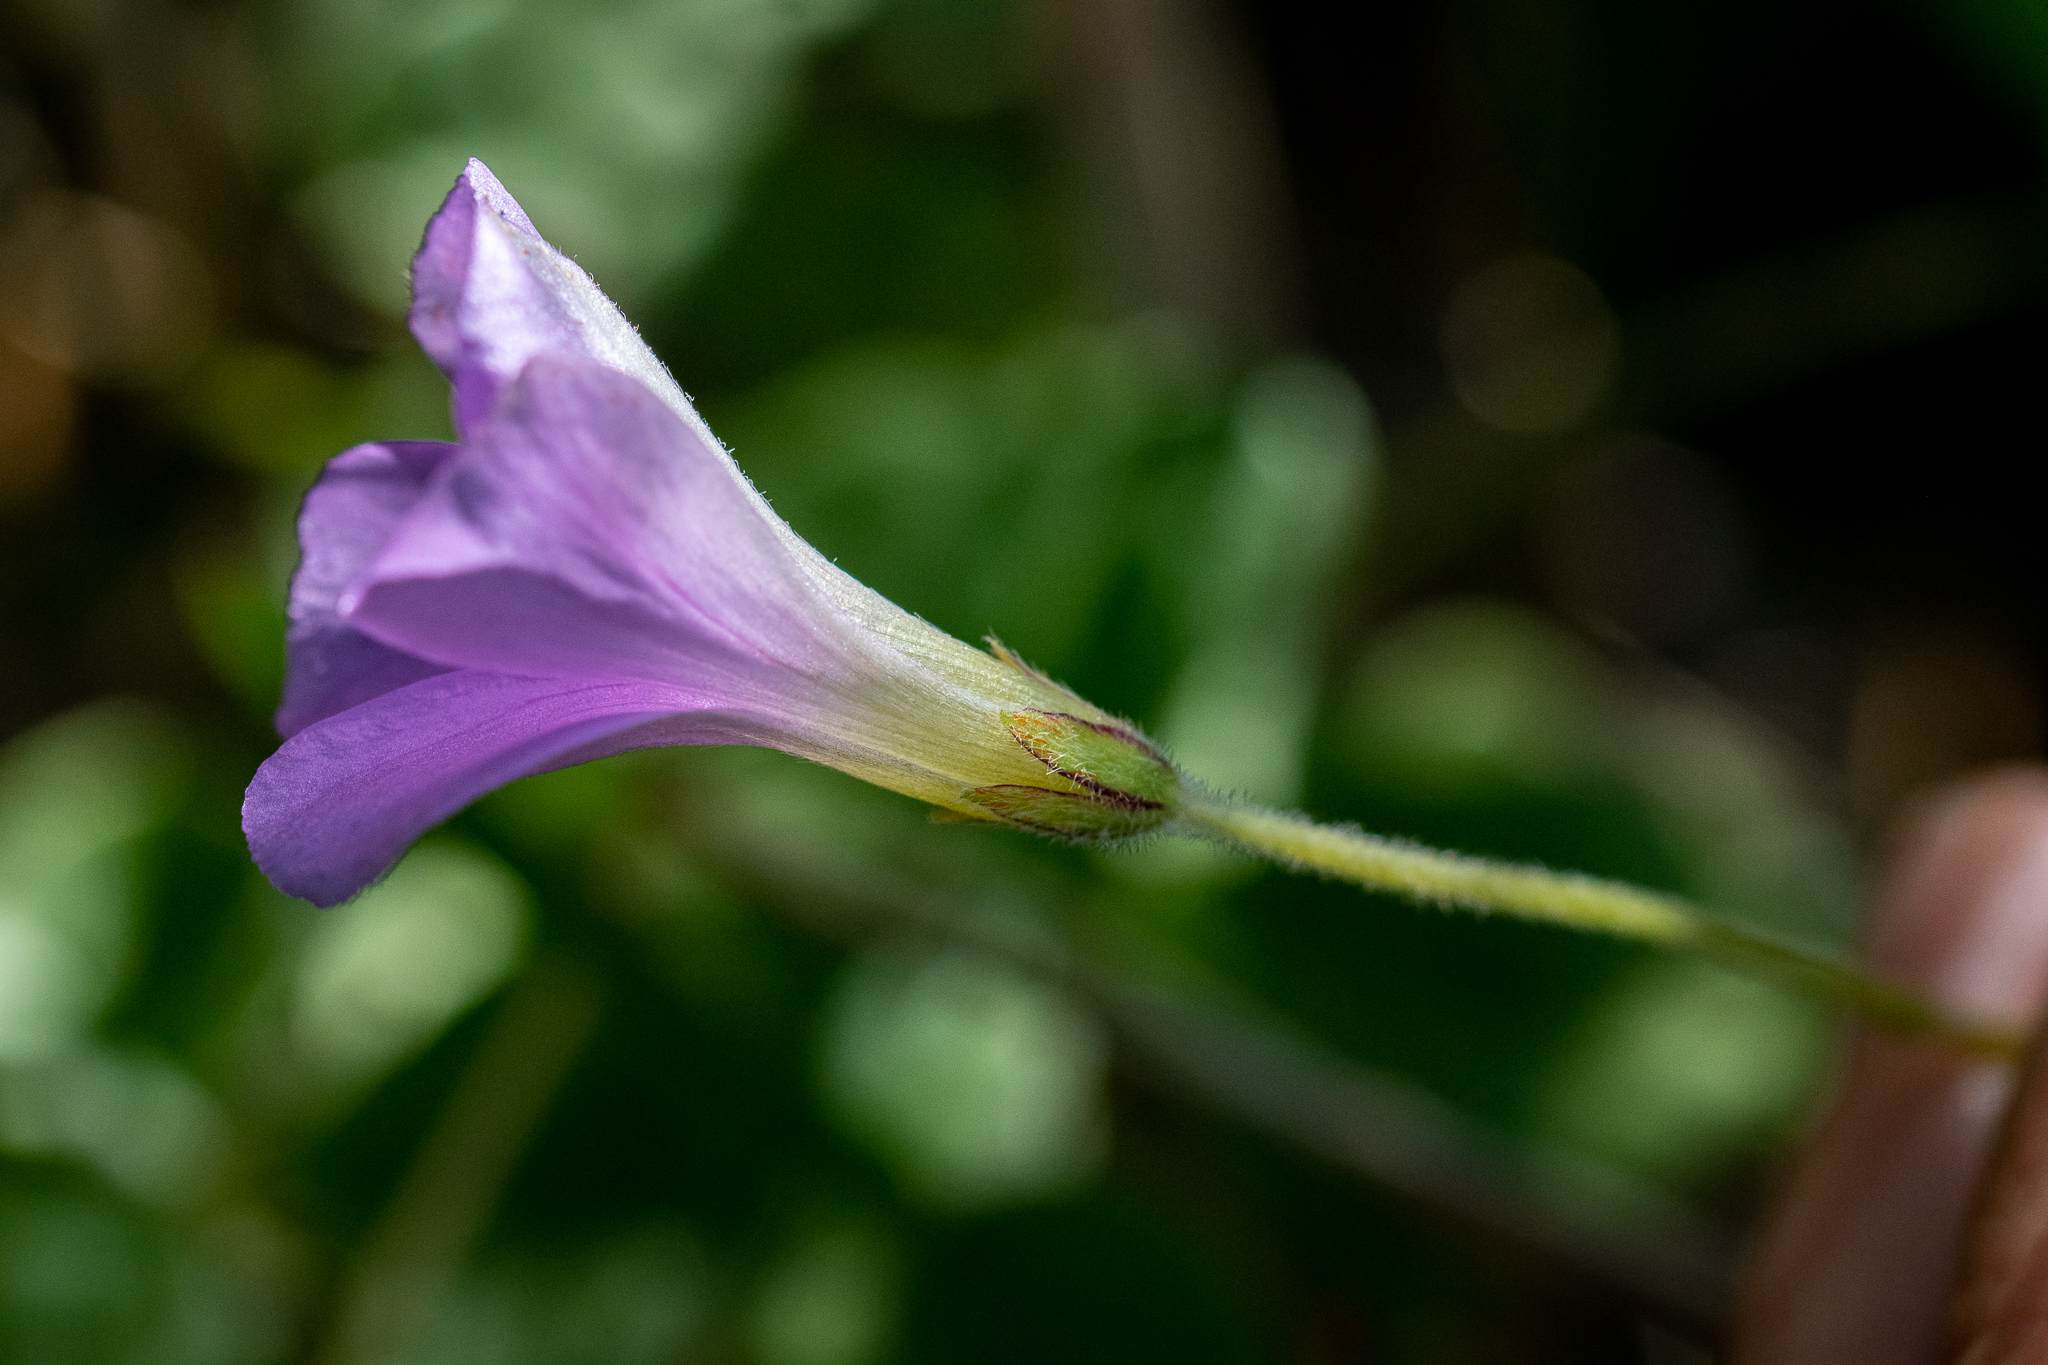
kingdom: Plantae
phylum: Tracheophyta
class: Magnoliopsida
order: Oxalidales
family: Oxalidaceae
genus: Oxalis
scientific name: Oxalis truncatula
